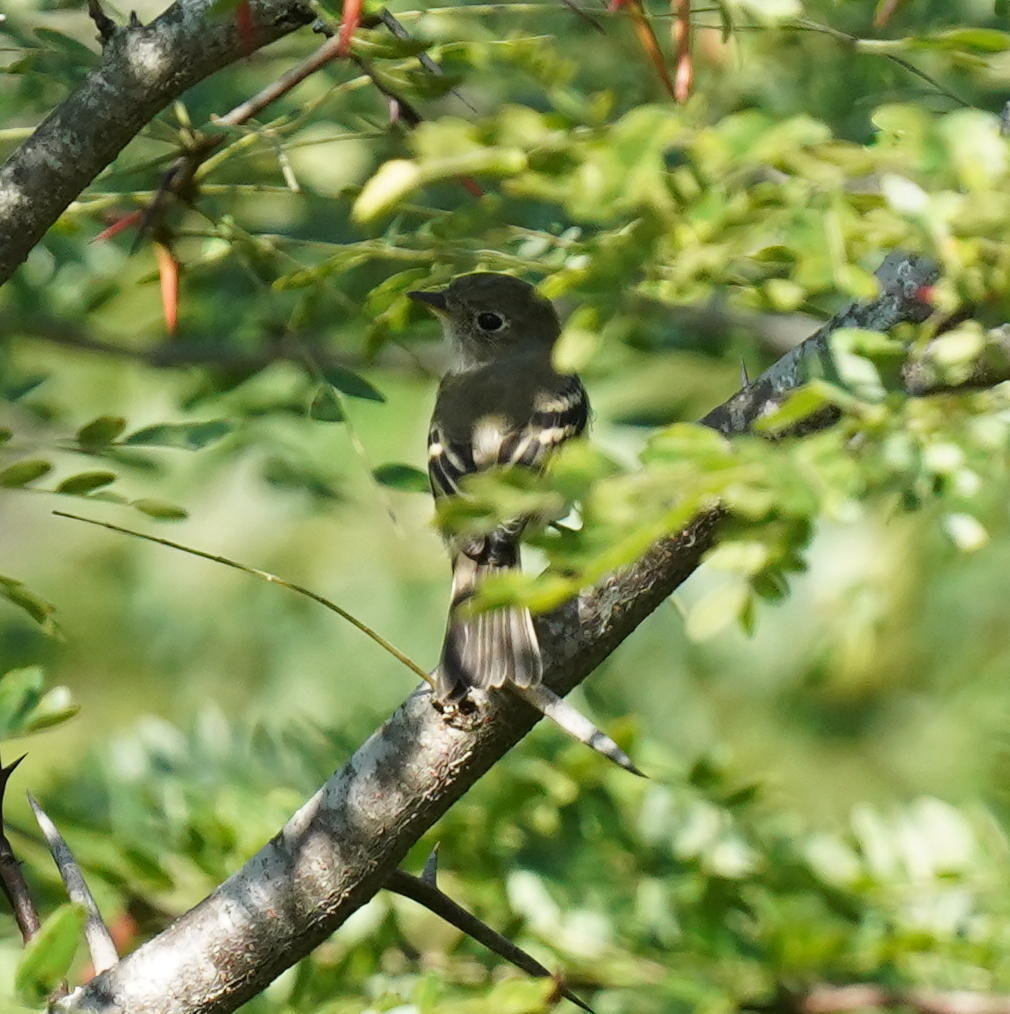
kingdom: Animalia
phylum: Chordata
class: Aves
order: Passeriformes
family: Tyrannidae
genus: Empidonax
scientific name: Empidonax minimus
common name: Least flycatcher
